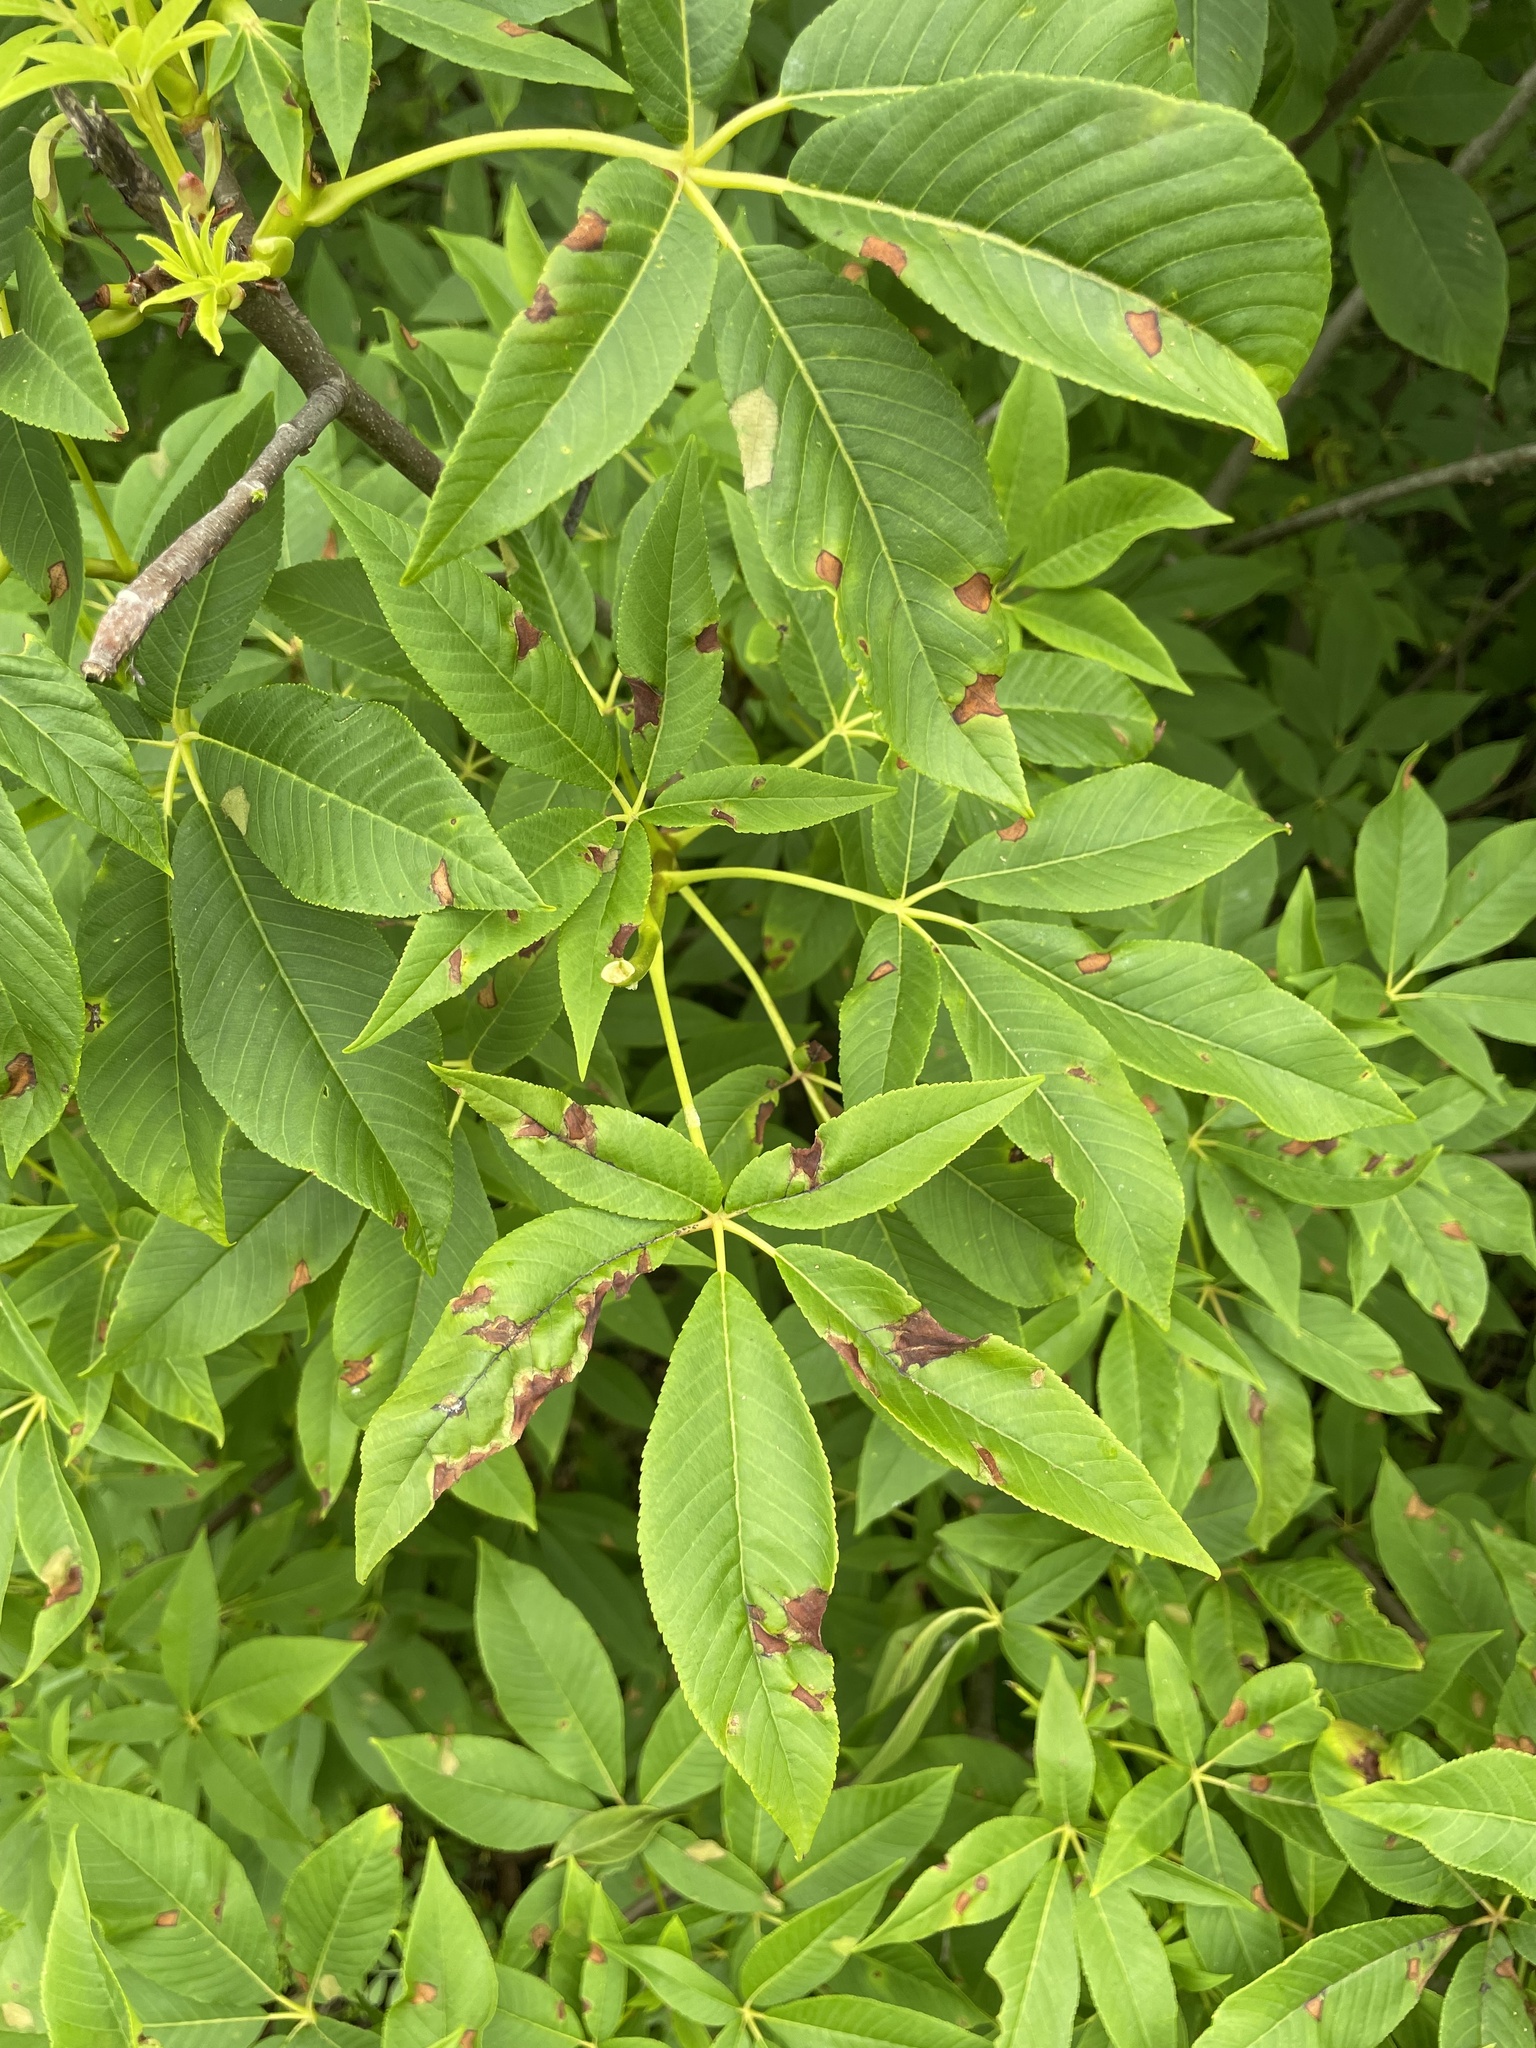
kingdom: Plantae
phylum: Tracheophyta
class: Magnoliopsida
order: Sapindales
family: Sapindaceae
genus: Aesculus
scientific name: Aesculus californica
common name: California buckeye
